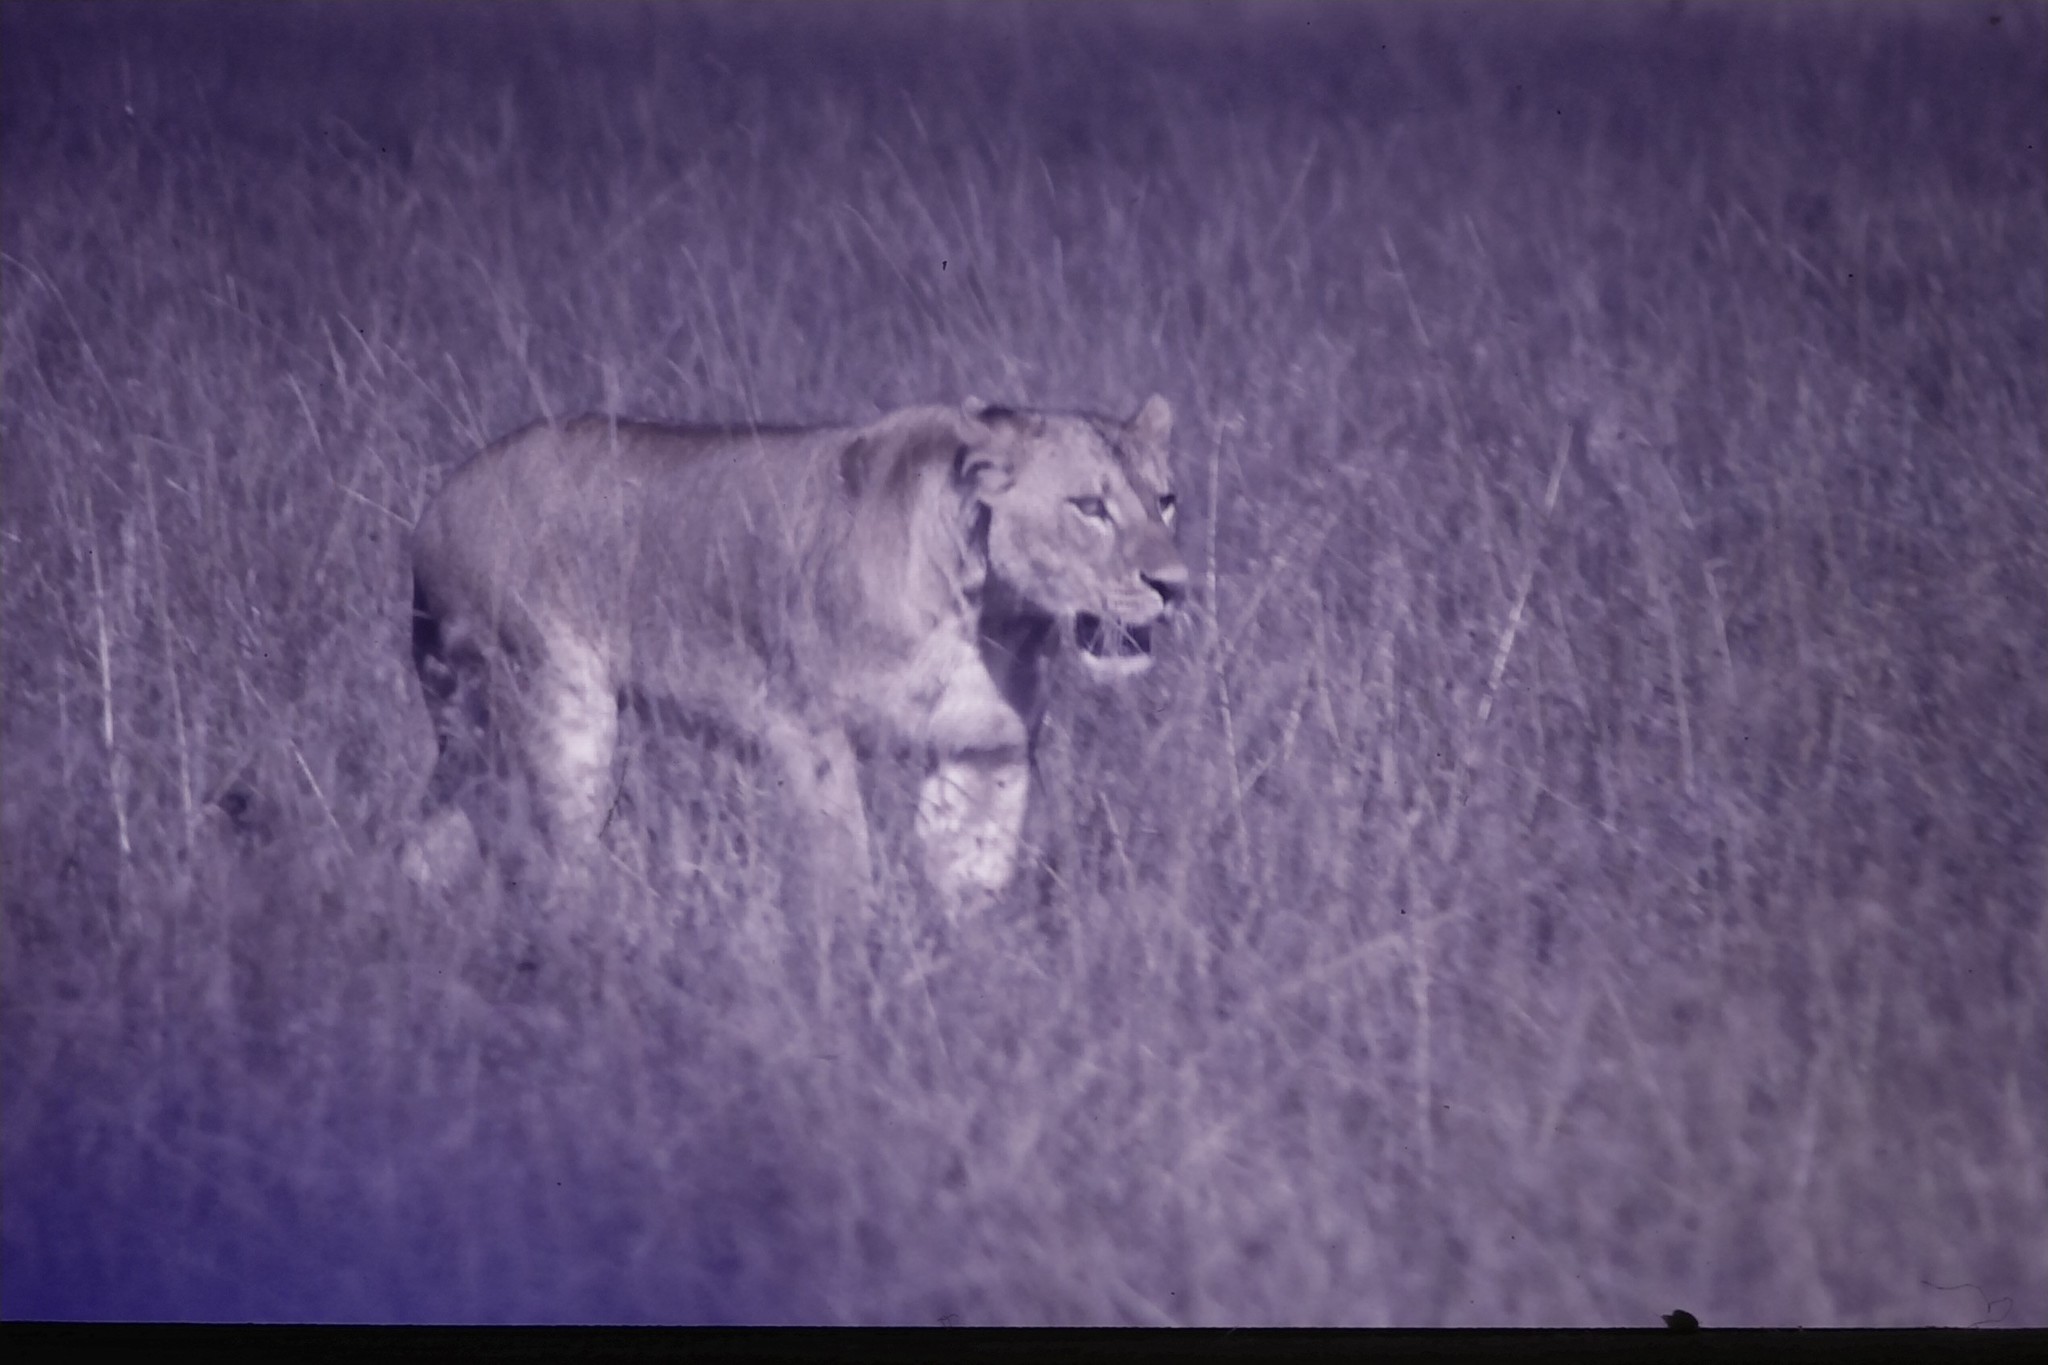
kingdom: Animalia
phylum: Chordata
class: Mammalia
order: Carnivora
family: Felidae
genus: Panthera
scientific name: Panthera leo
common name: Lion
